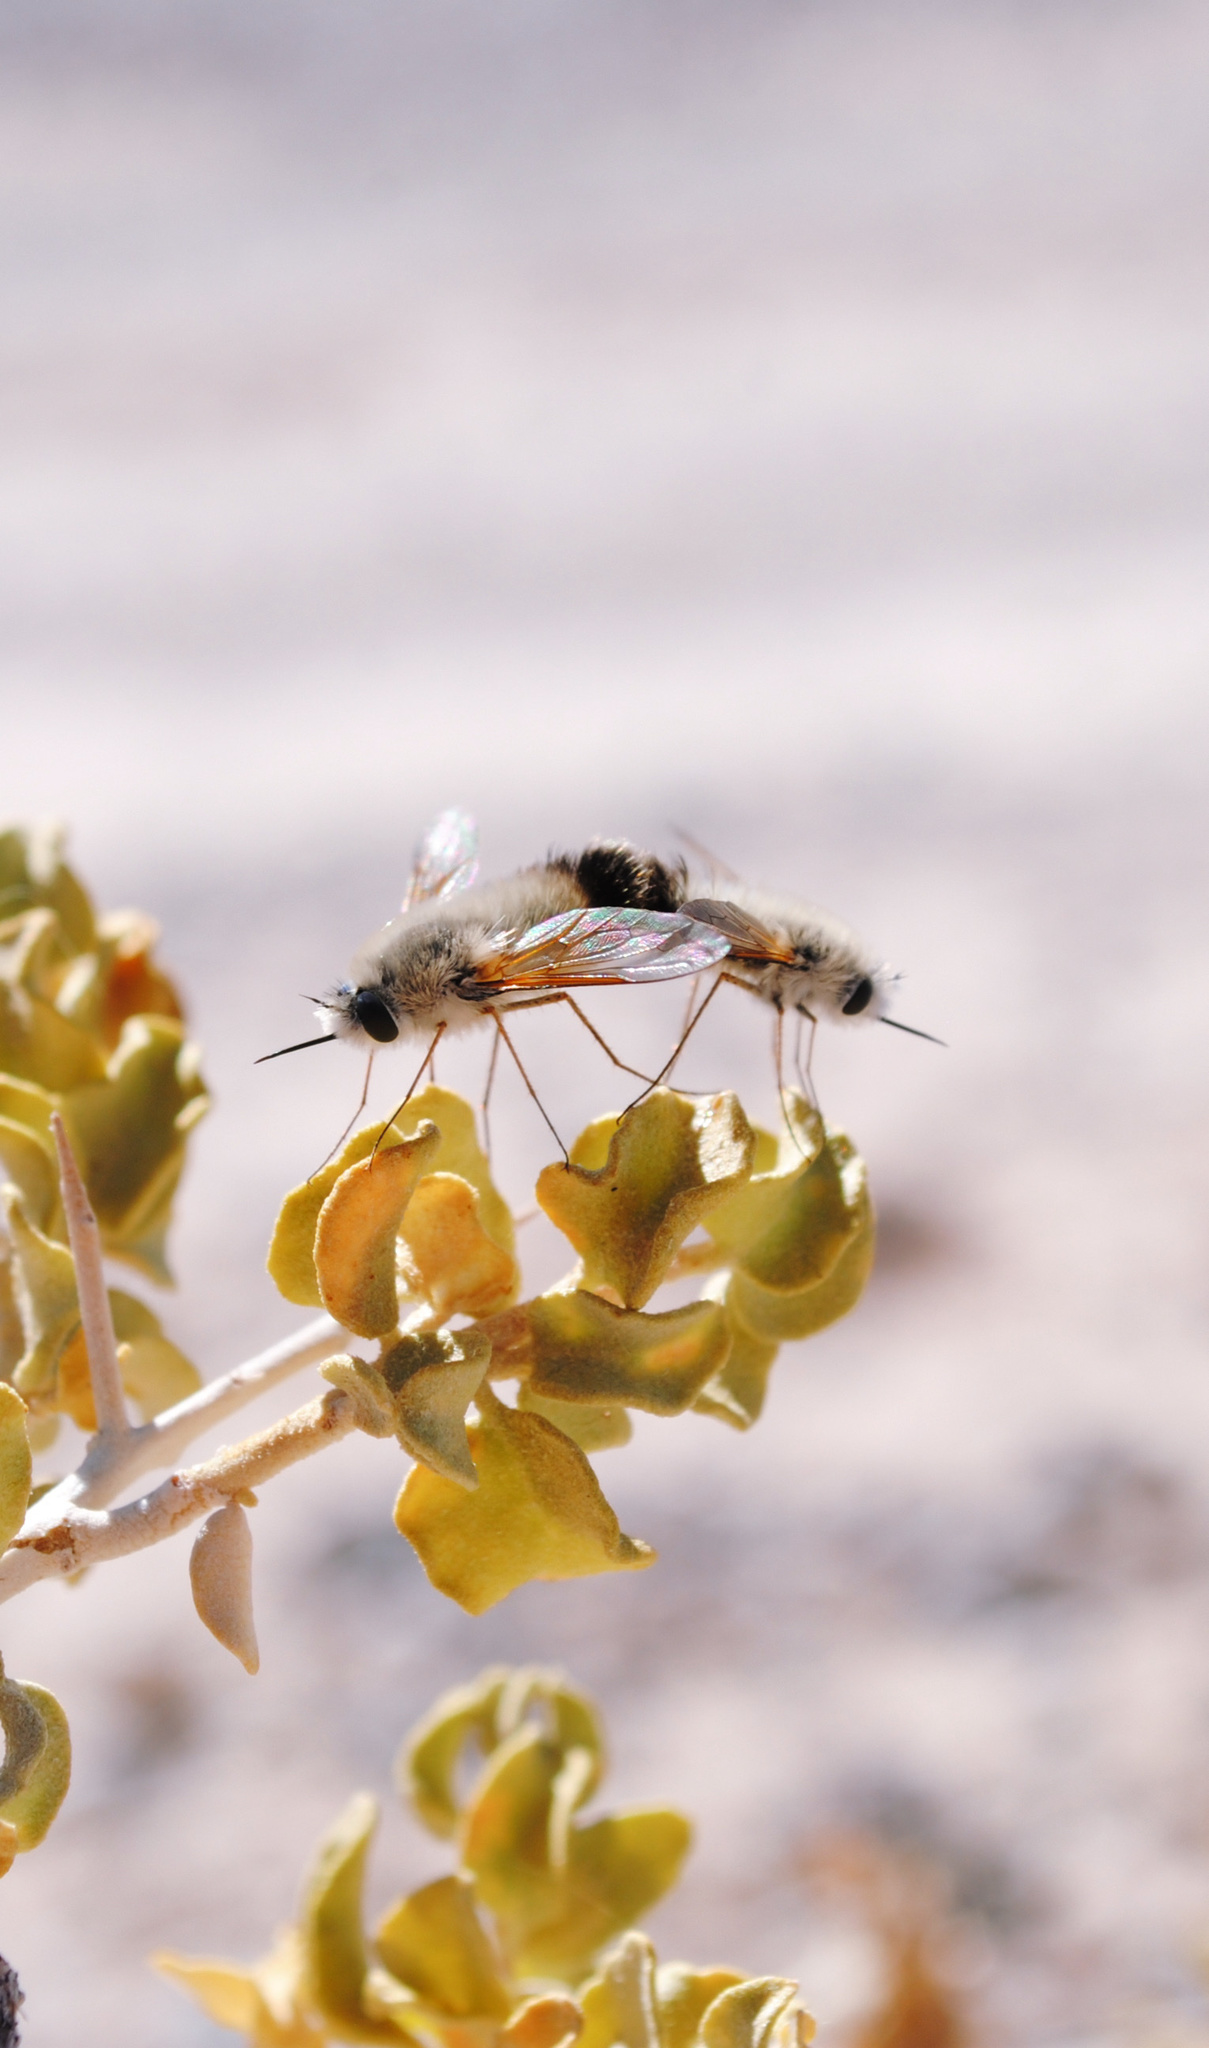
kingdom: Animalia
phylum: Arthropoda
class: Insecta
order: Diptera
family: Bombyliidae
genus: Anastoechus
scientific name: Anastoechus hessei
